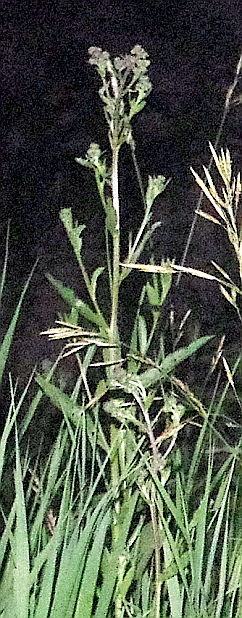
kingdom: Plantae
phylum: Tracheophyta
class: Magnoliopsida
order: Asterales
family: Asteraceae
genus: Cirsium
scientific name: Cirsium arvense
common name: Creeping thistle
